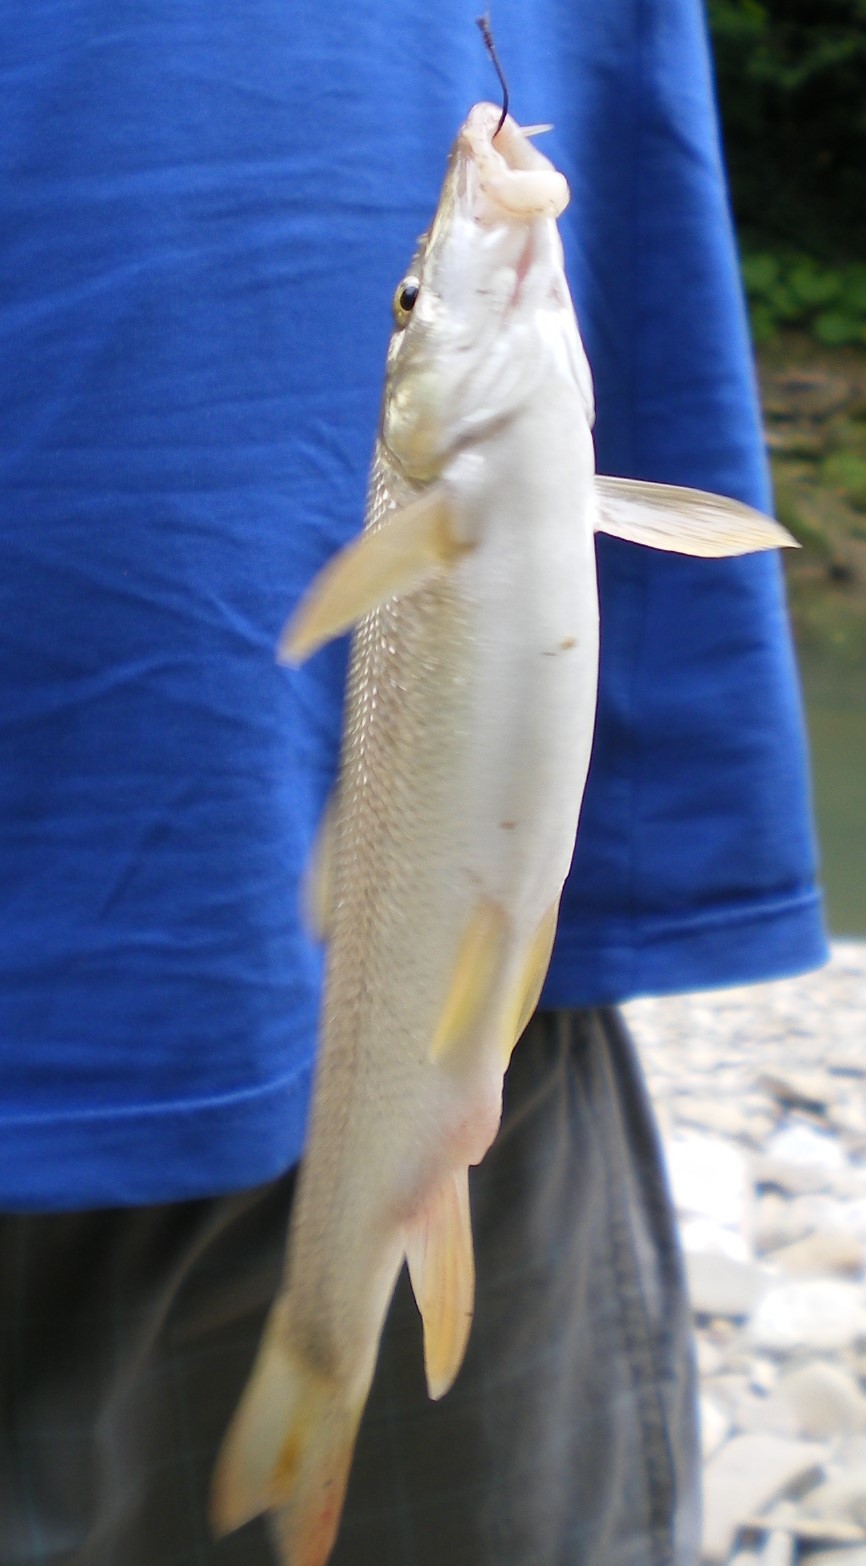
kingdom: Animalia
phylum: Chordata
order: Cypriniformes
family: Cyprinidae
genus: Barbus
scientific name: Barbus tauricus
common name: Crimean barbel
